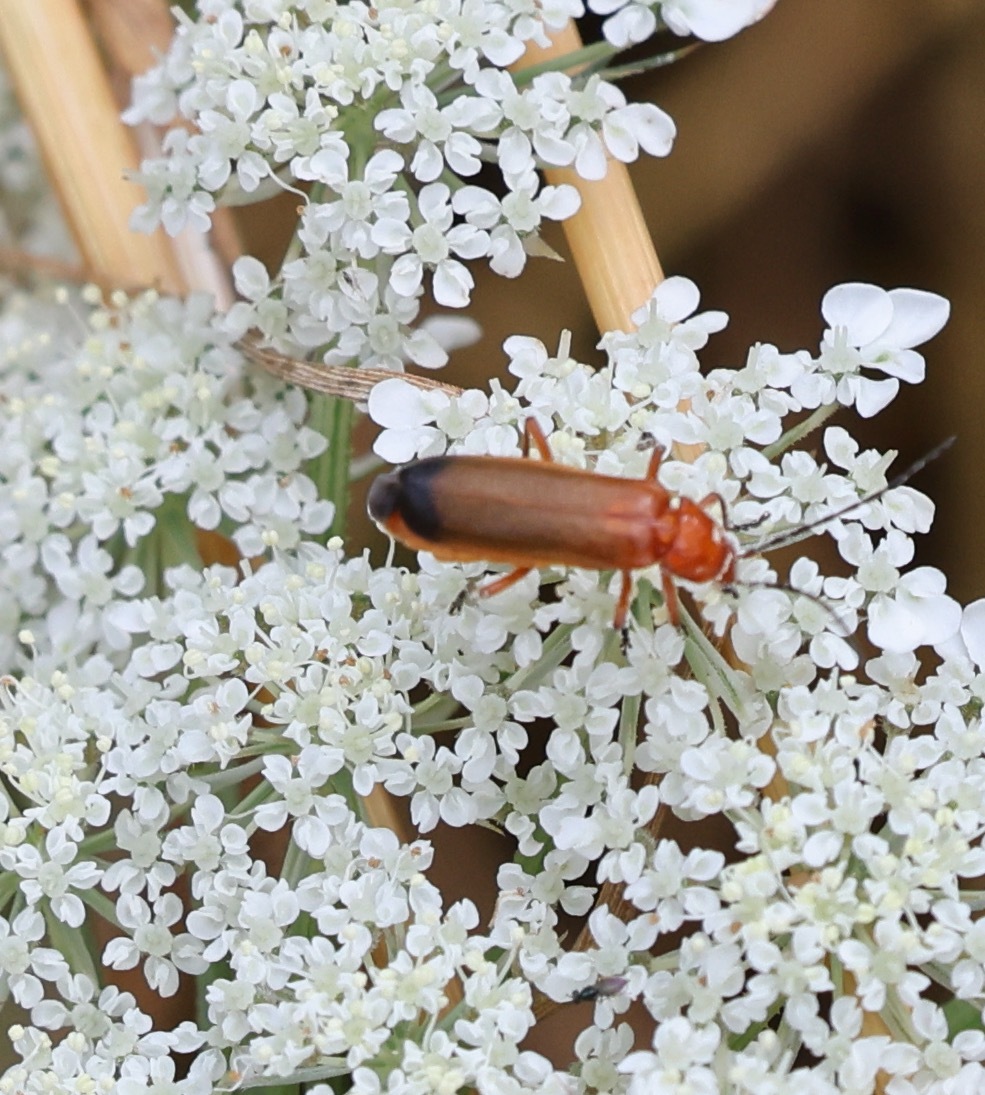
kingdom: Animalia
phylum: Arthropoda
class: Insecta
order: Coleoptera
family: Cantharidae
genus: Rhagonycha
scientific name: Rhagonycha fulva
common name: Common red soldier beetle
